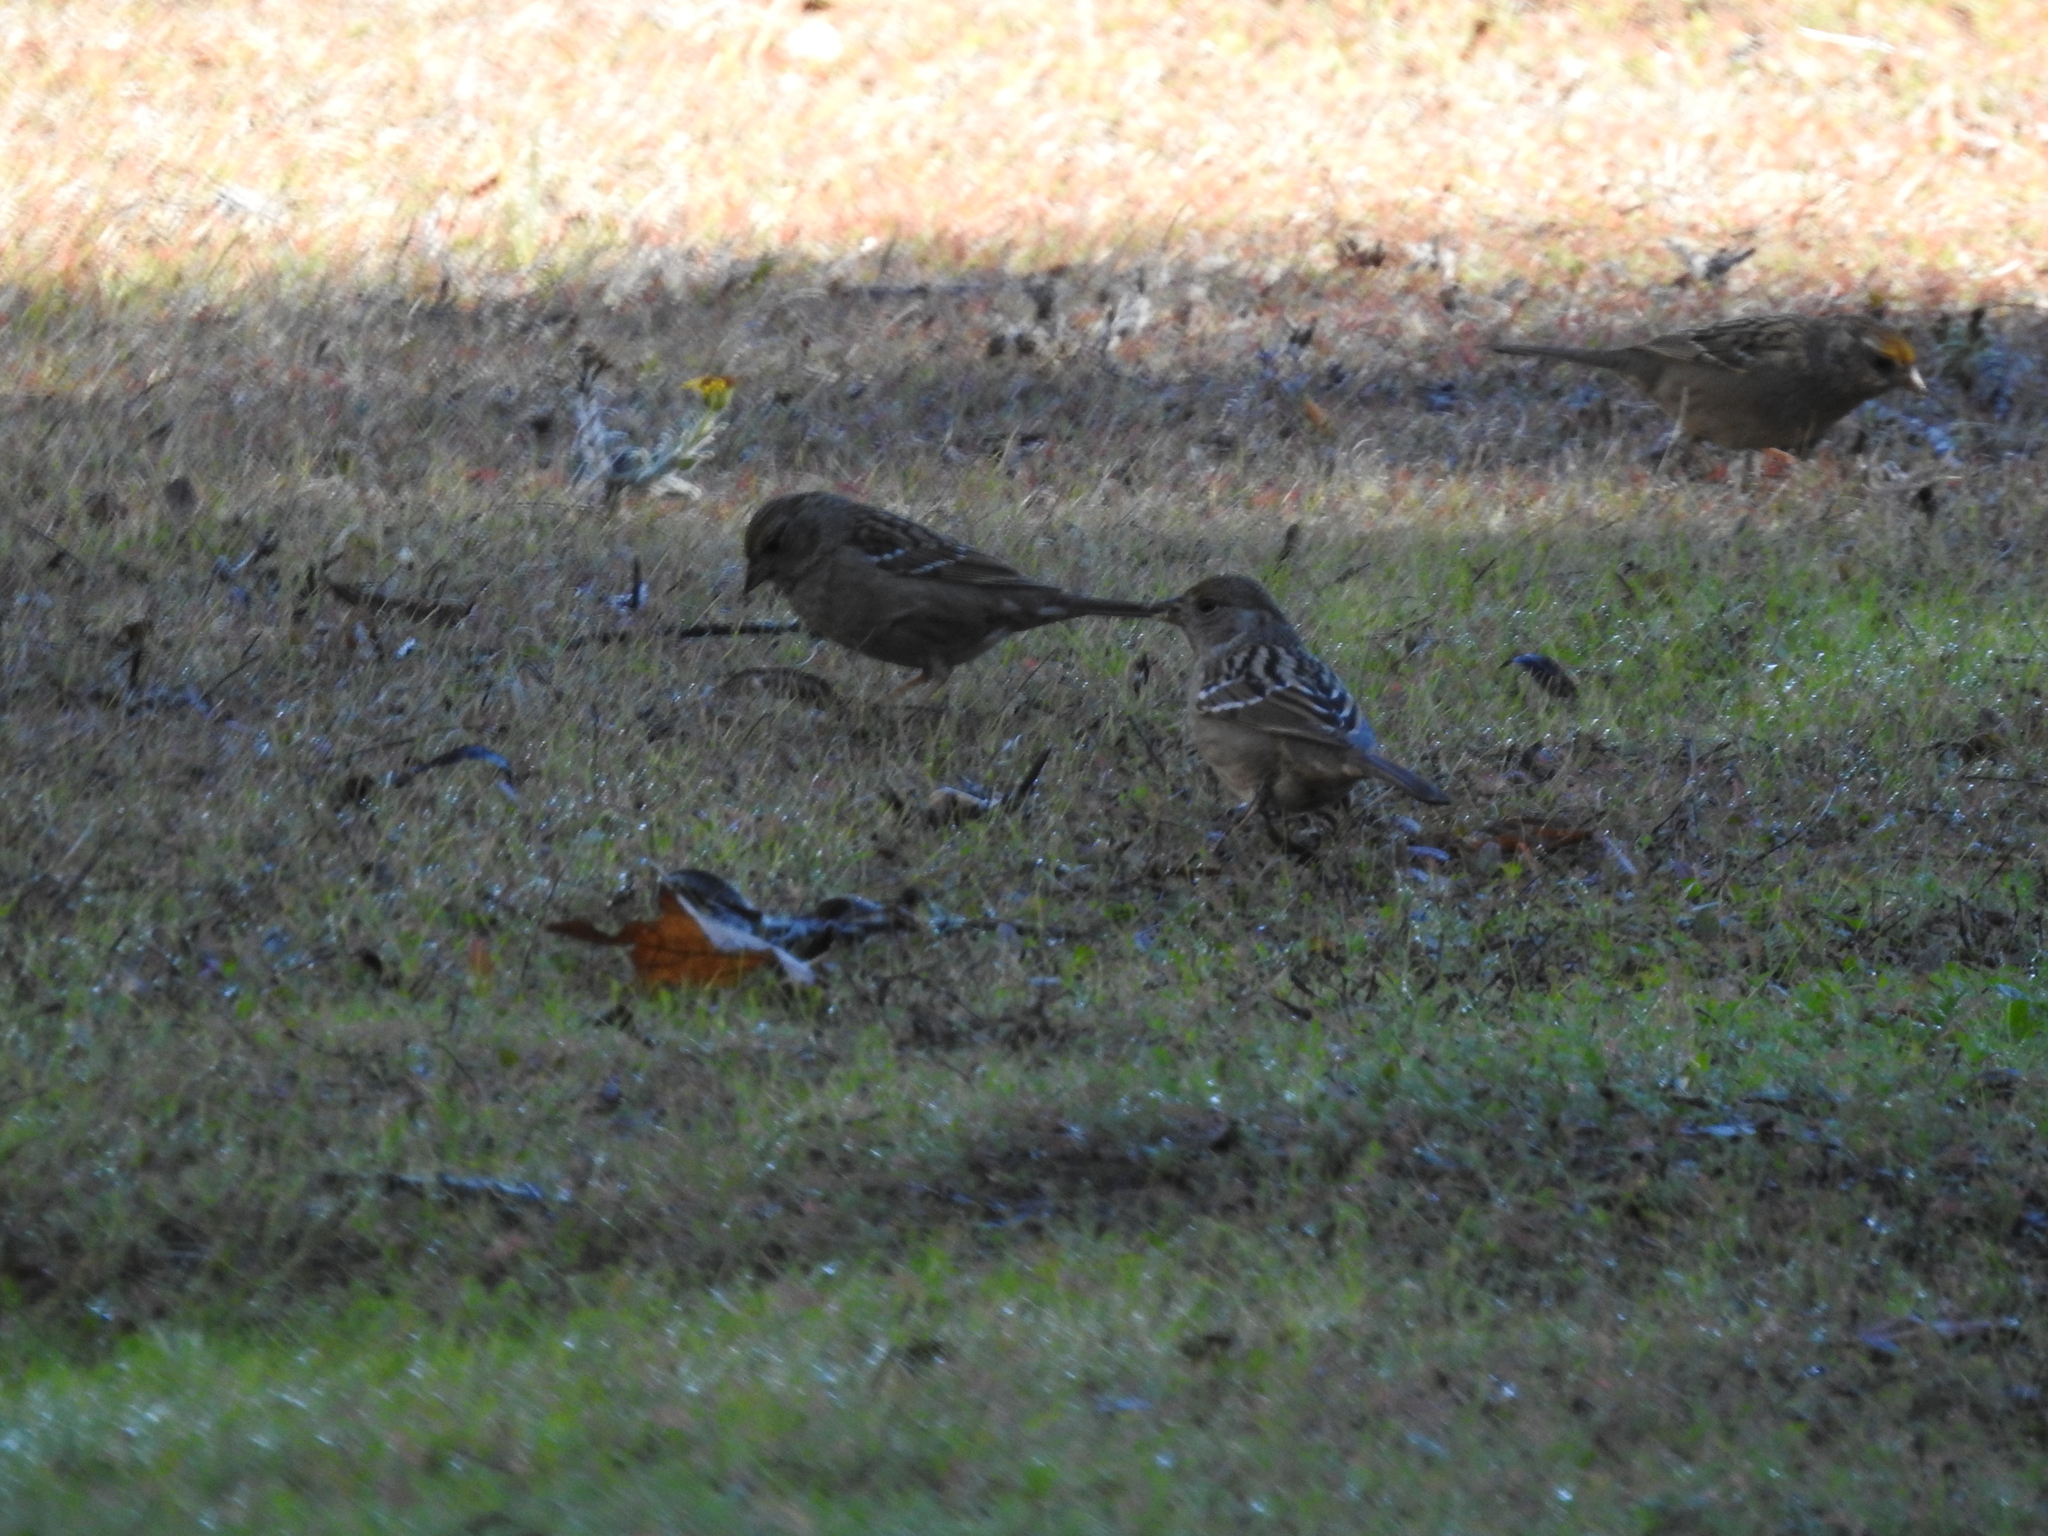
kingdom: Animalia
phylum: Chordata
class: Aves
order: Passeriformes
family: Passerellidae
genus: Zonotrichia
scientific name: Zonotrichia atricapilla
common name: Golden-crowned sparrow
